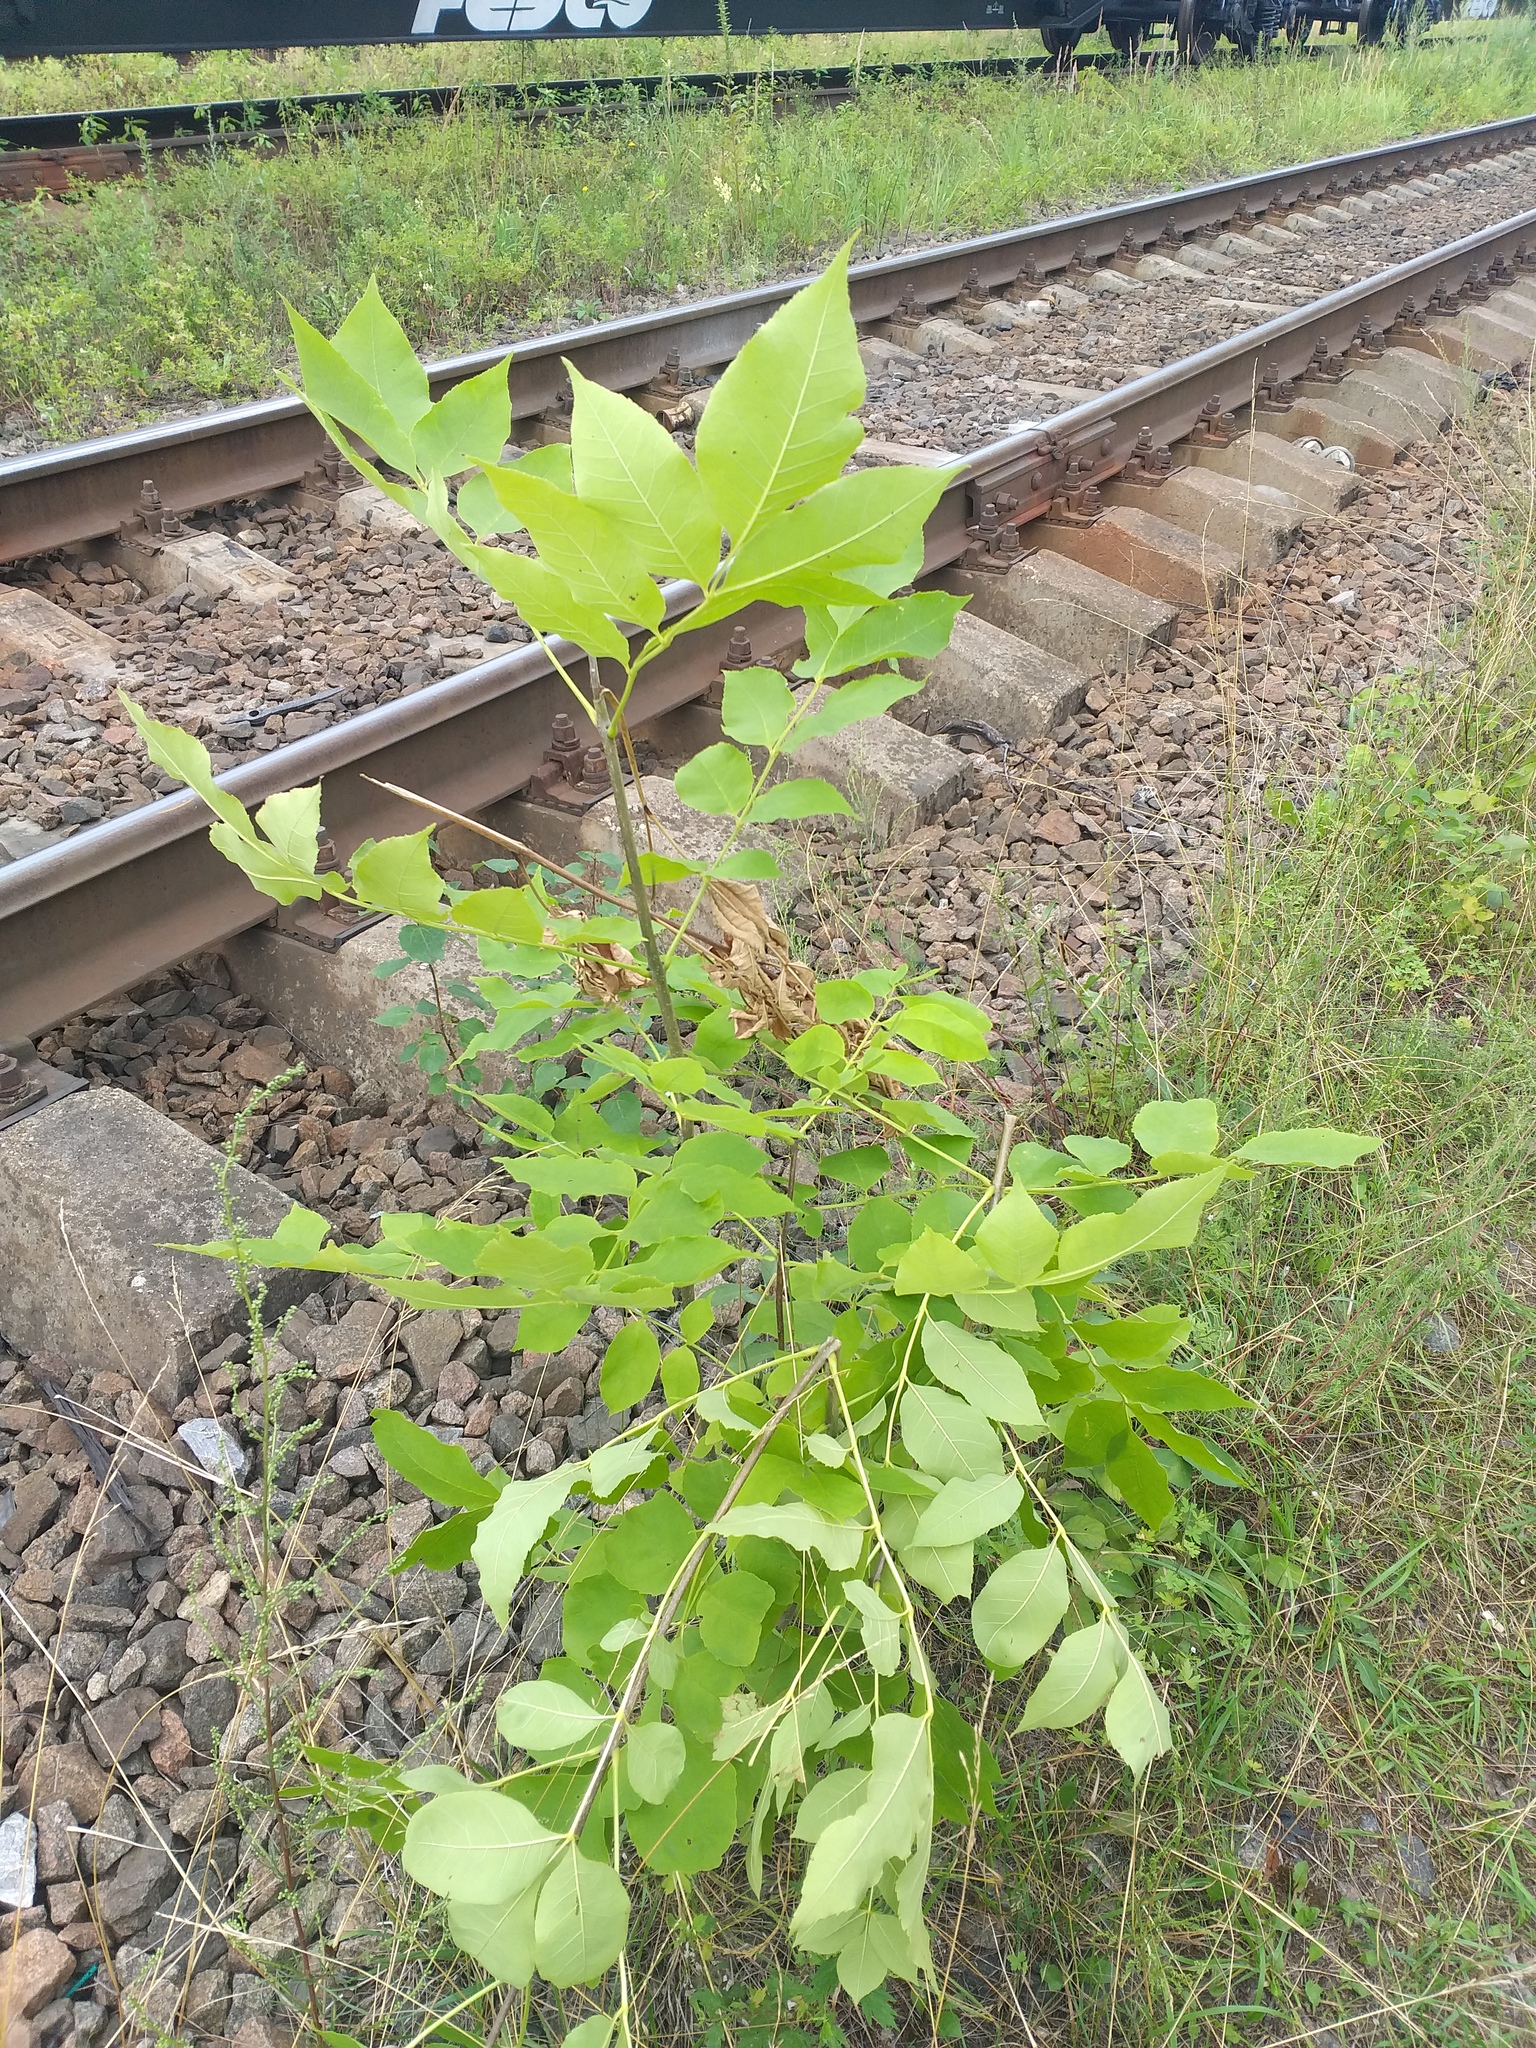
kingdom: Plantae
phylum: Tracheophyta
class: Magnoliopsida
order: Lamiales
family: Oleaceae
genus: Fraxinus
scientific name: Fraxinus pennsylvanica
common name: Green ash
